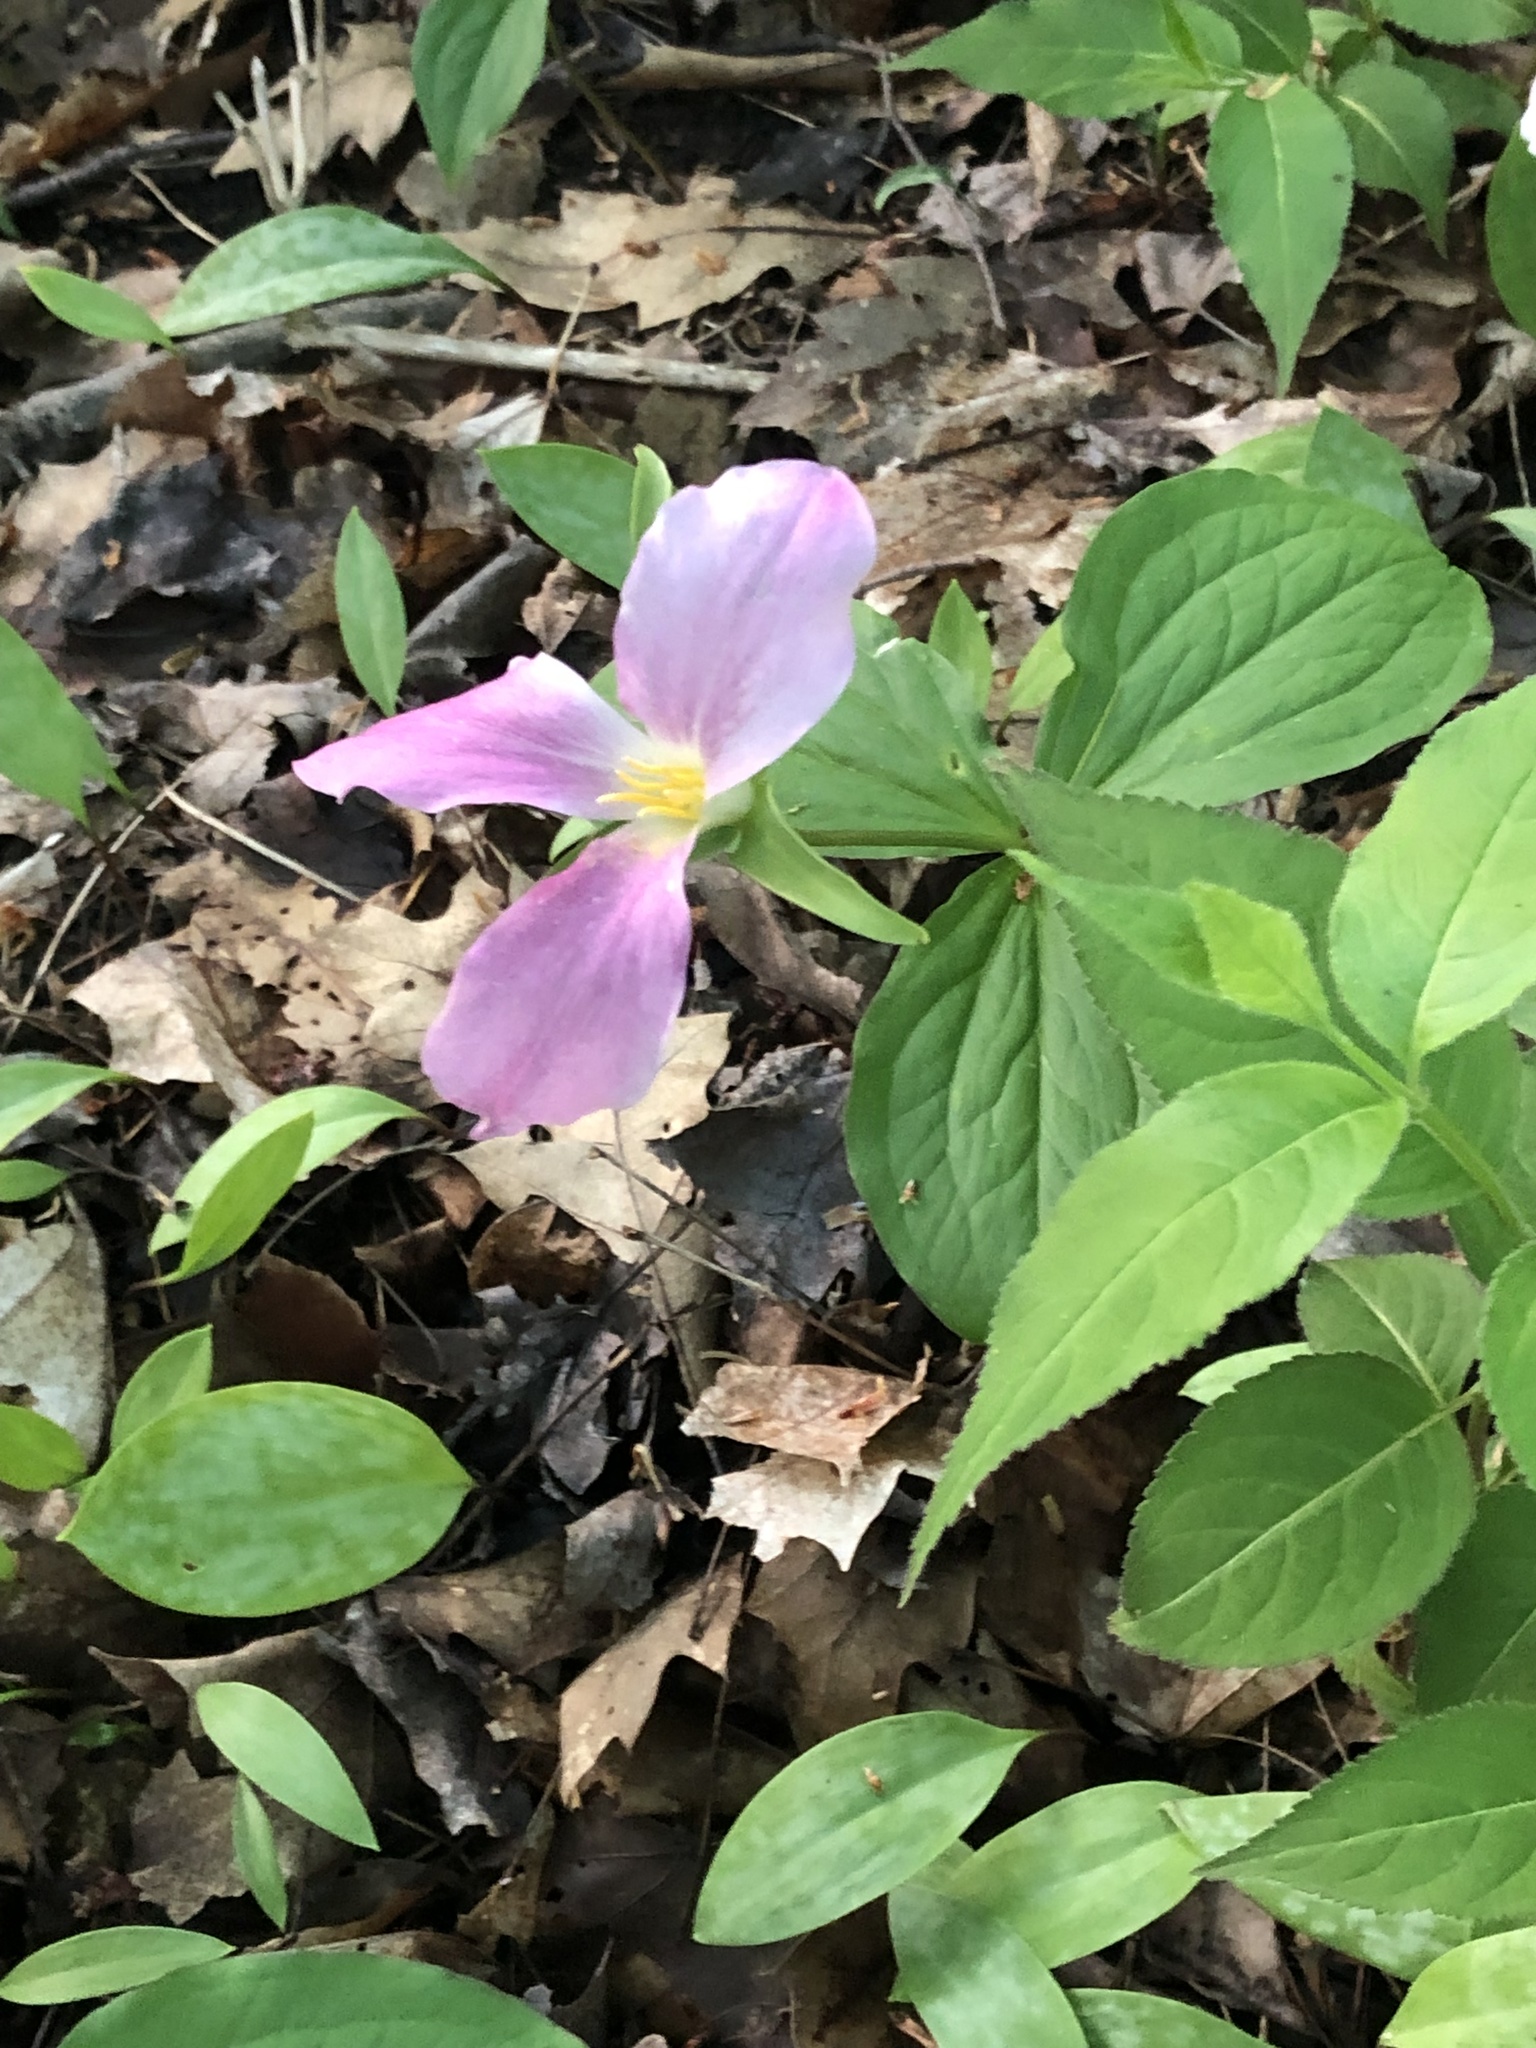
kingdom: Plantae
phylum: Tracheophyta
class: Liliopsida
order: Liliales
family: Melanthiaceae
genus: Trillium
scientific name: Trillium grandiflorum
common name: Great white trillium
